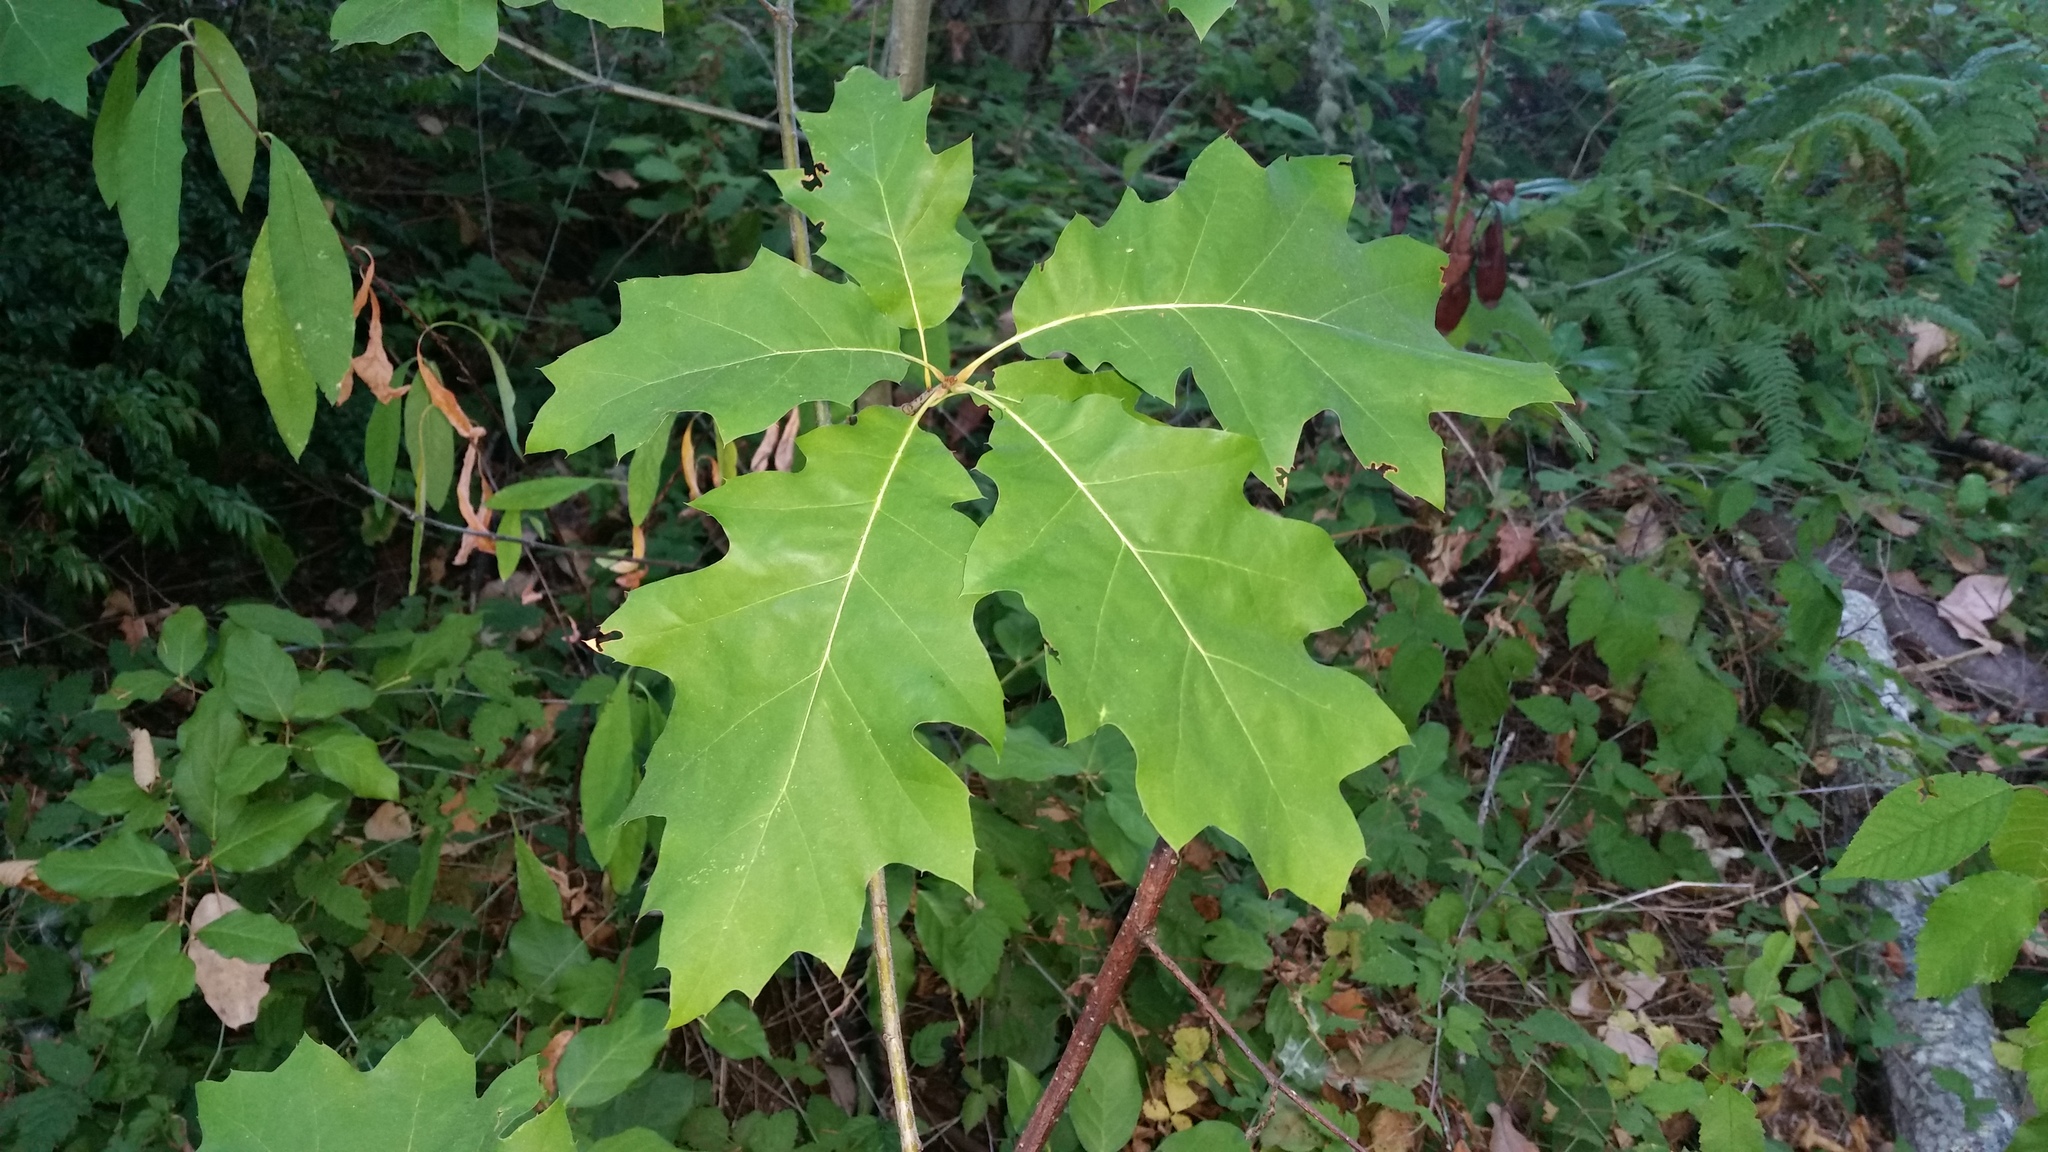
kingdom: Plantae
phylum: Tracheophyta
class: Magnoliopsida
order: Fagales
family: Fagaceae
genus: Quercus
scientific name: Quercus rubra
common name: Red oak
